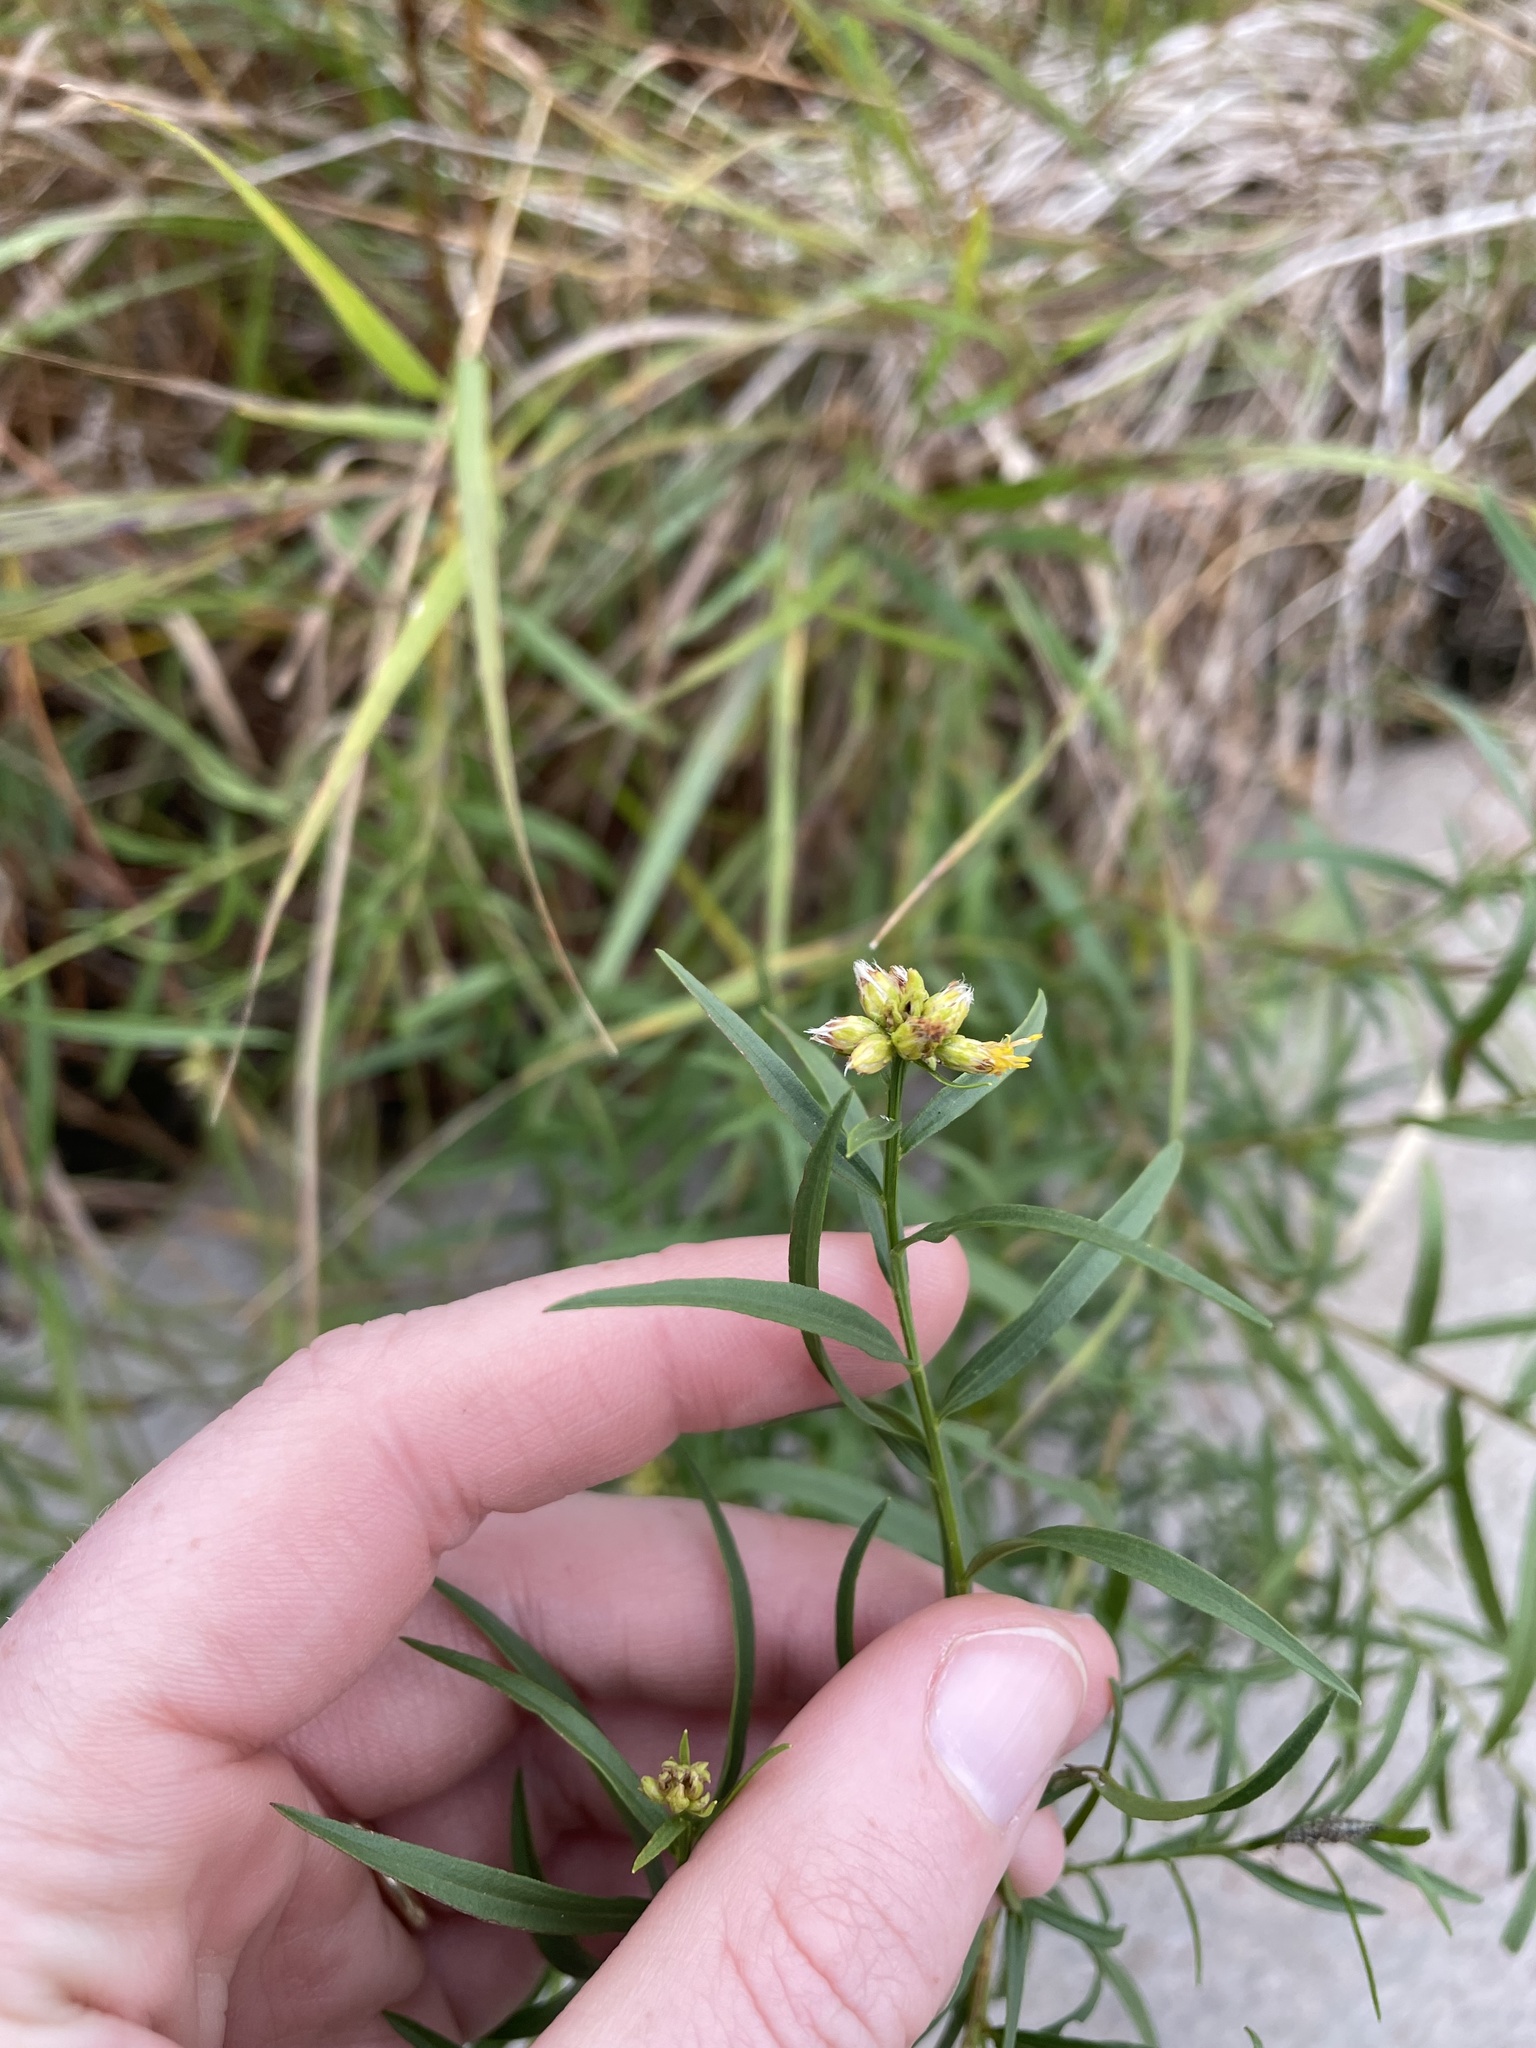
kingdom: Plantae
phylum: Tracheophyta
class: Magnoliopsida
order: Asterales
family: Asteraceae
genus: Euthamia
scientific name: Euthamia graminifolia
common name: Common goldentop
